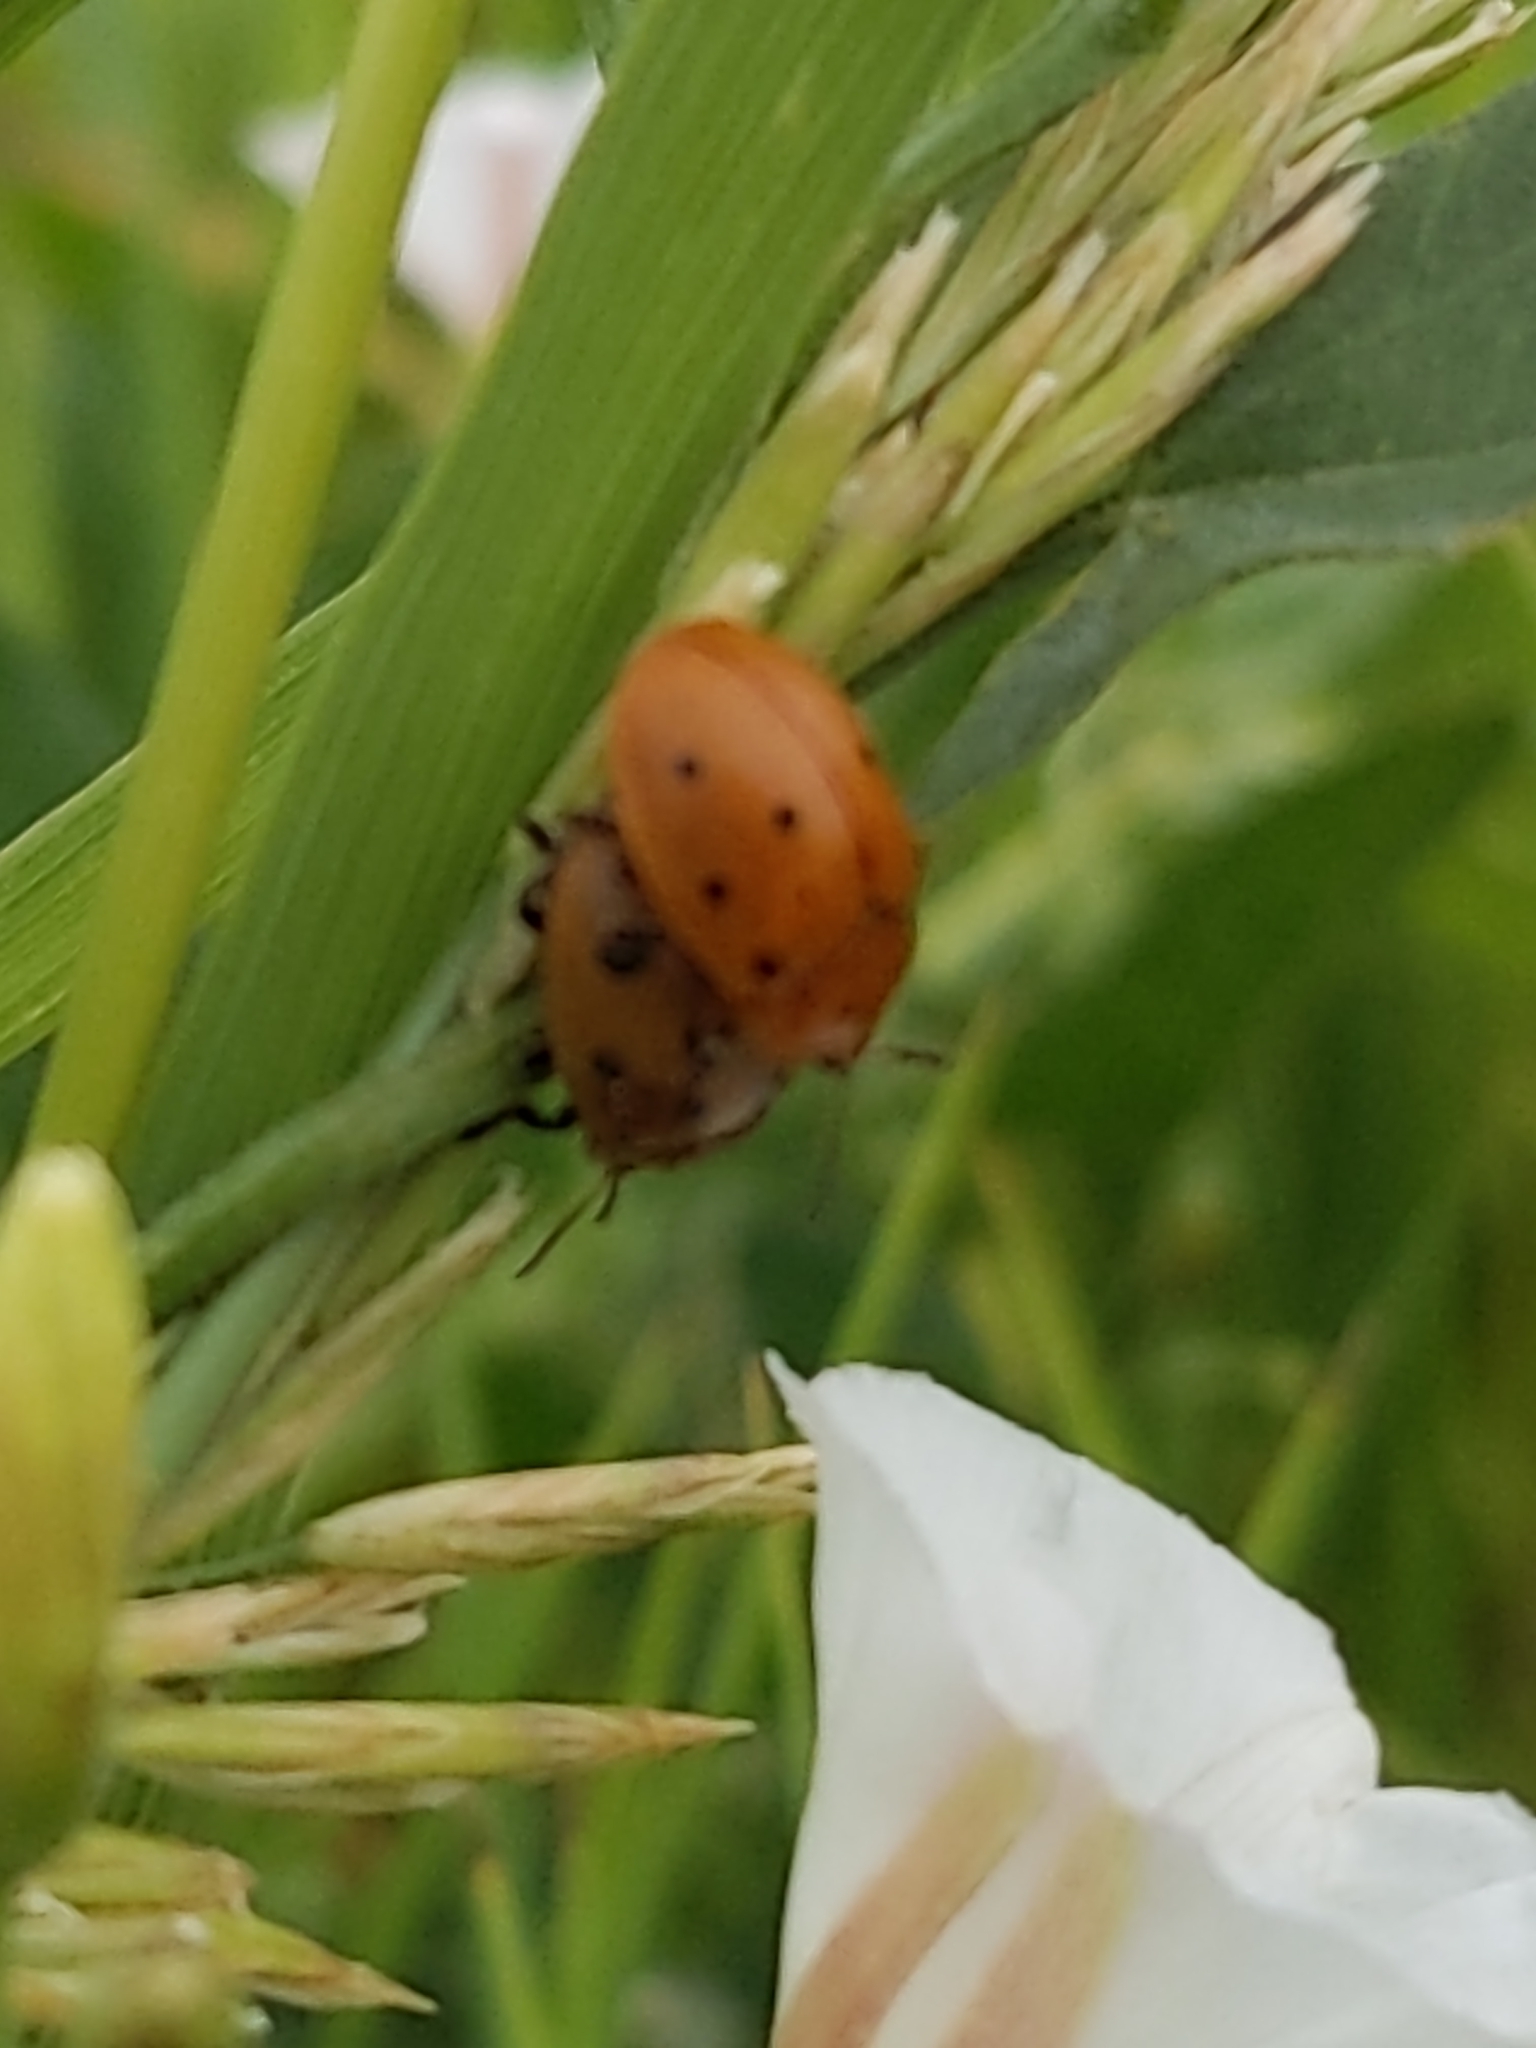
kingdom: Animalia
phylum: Arthropoda
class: Insecta
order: Coleoptera
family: Chrysomelidae
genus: Chelymorpha
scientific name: Chelymorpha cassidea
